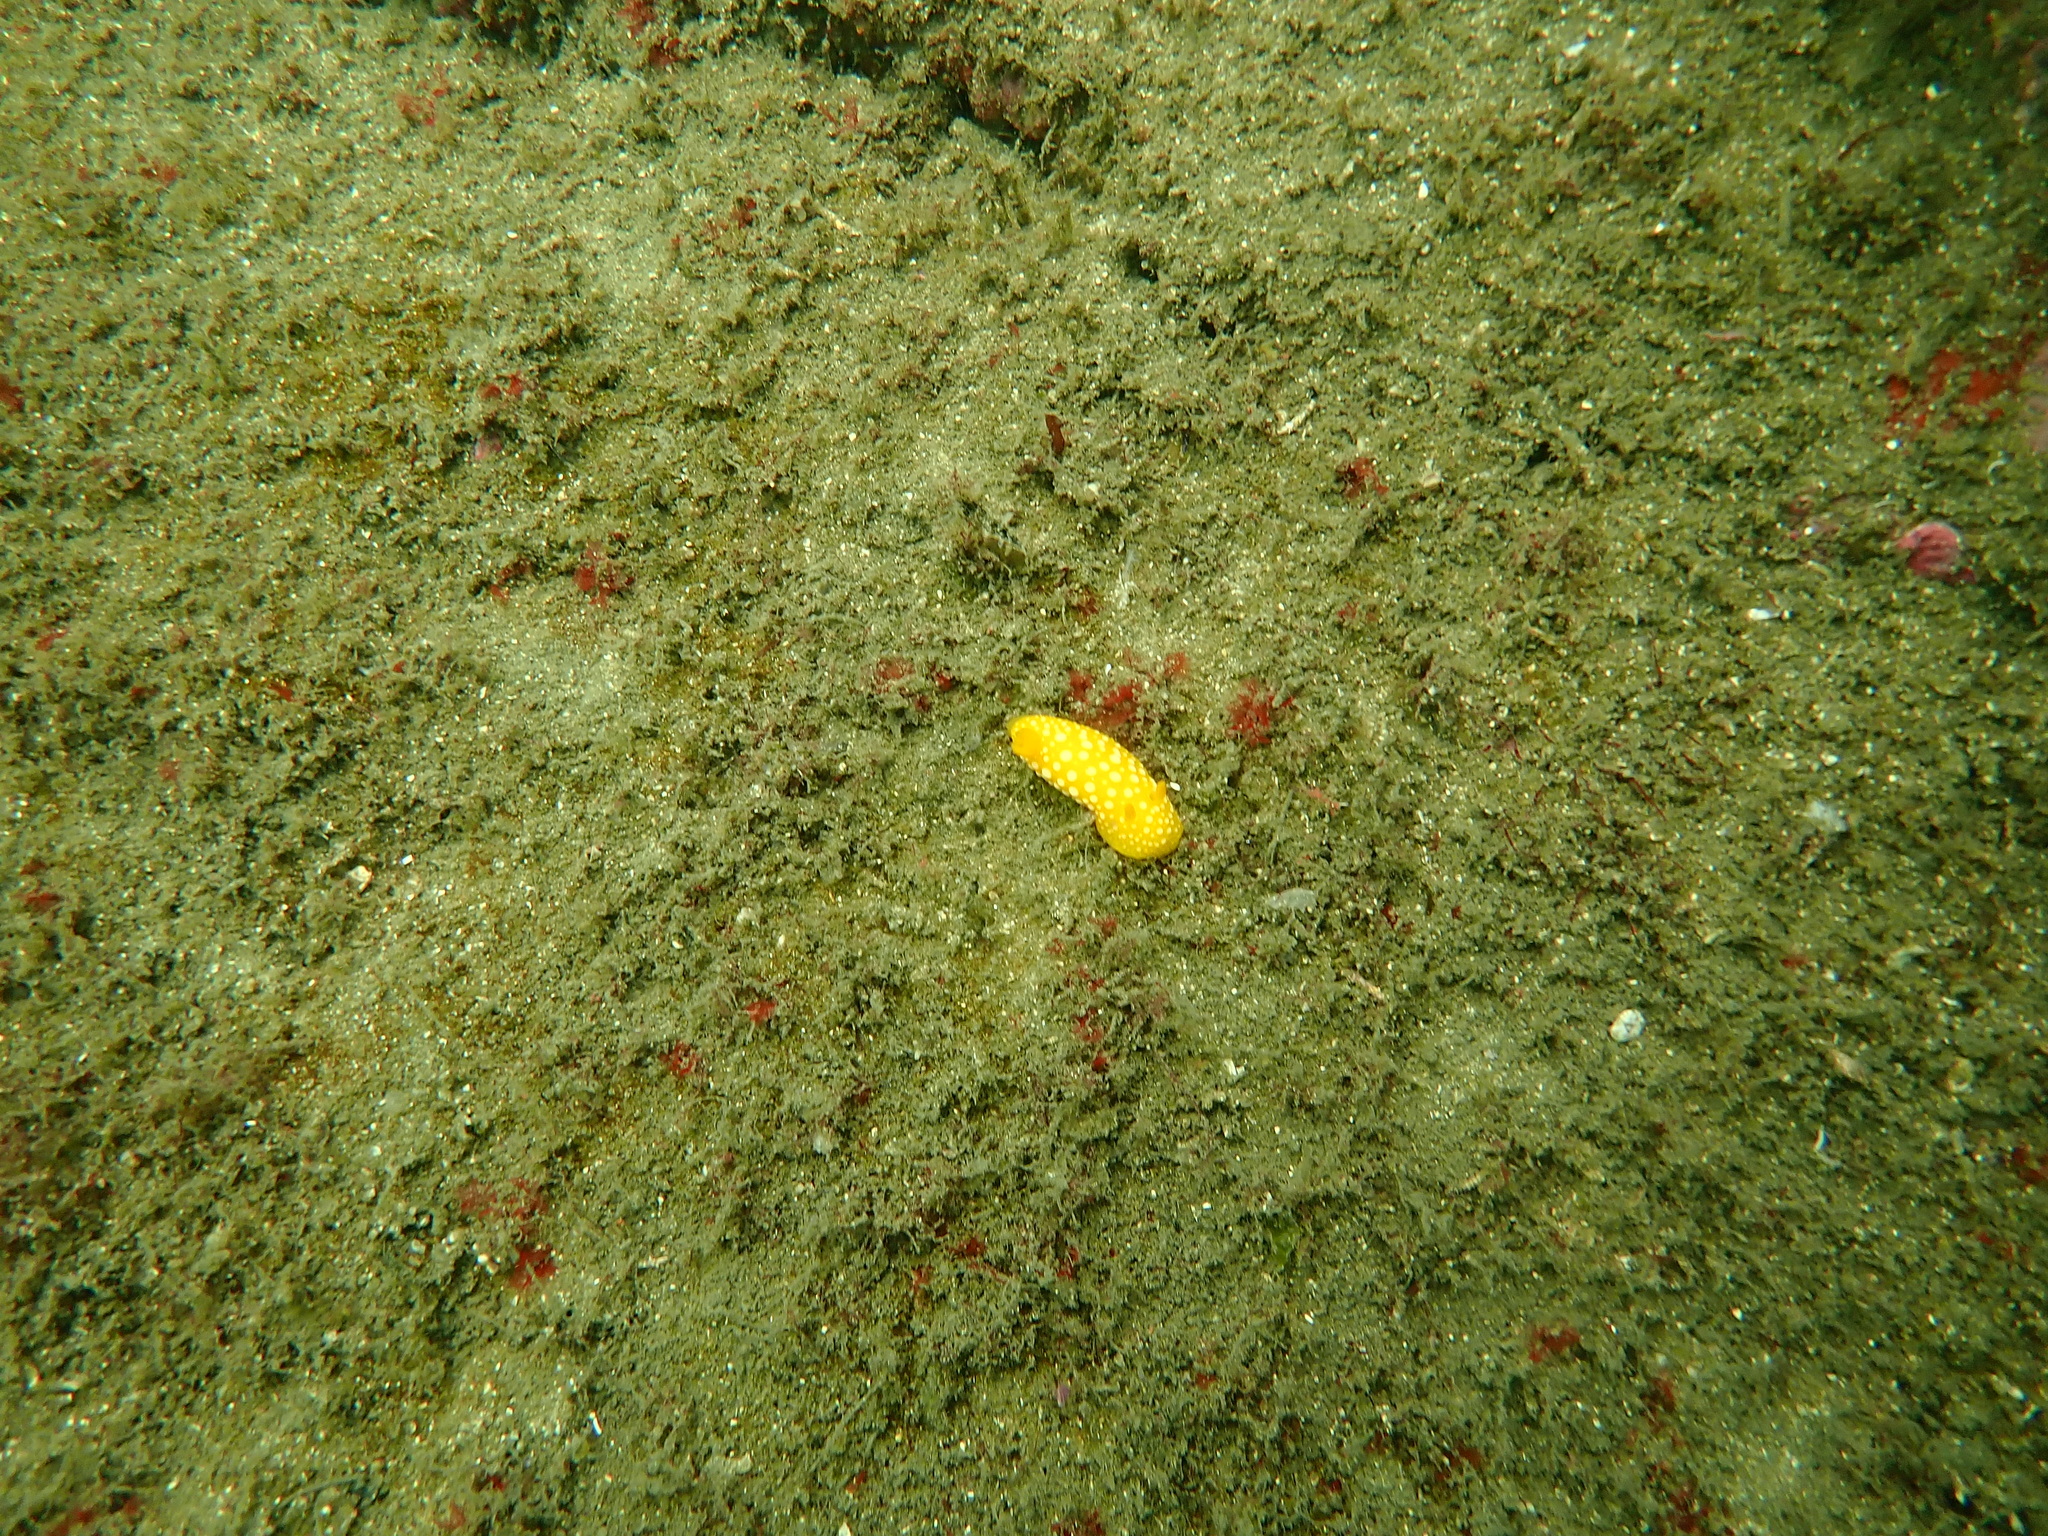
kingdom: Animalia
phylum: Mollusca
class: Gastropoda
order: Nudibranchia
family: Dorididae
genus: Doris
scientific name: Doris chrysoderma
